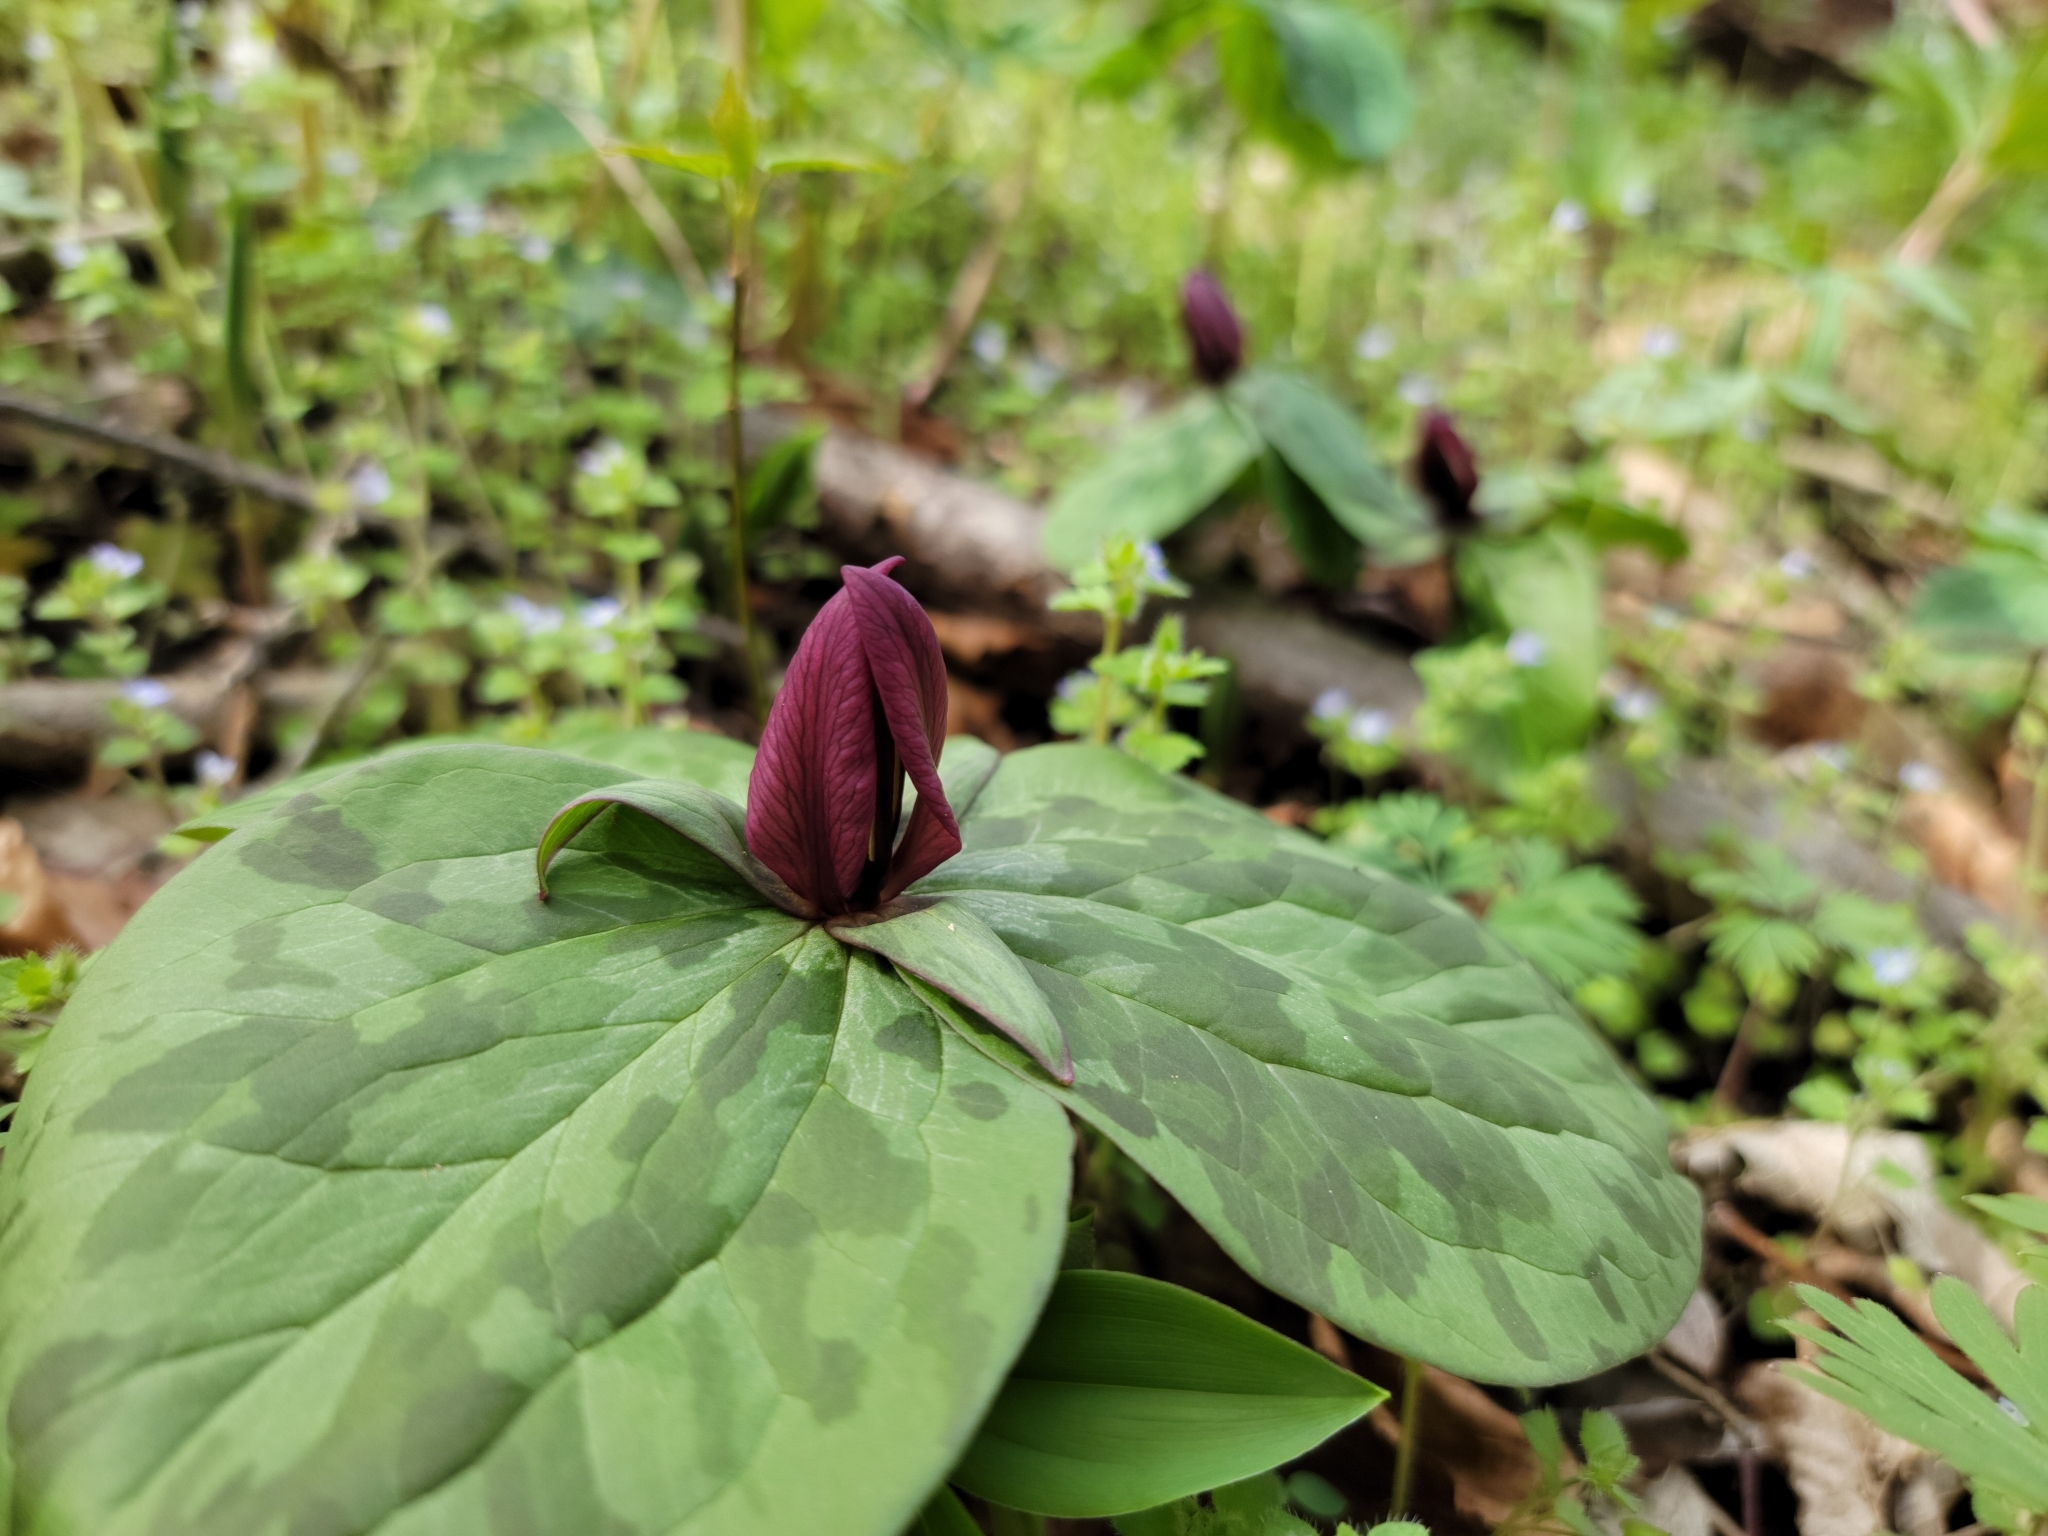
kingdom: Plantae
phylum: Tracheophyta
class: Liliopsida
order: Liliales
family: Melanthiaceae
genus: Trillium
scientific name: Trillium sessile
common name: Sessile trillium
